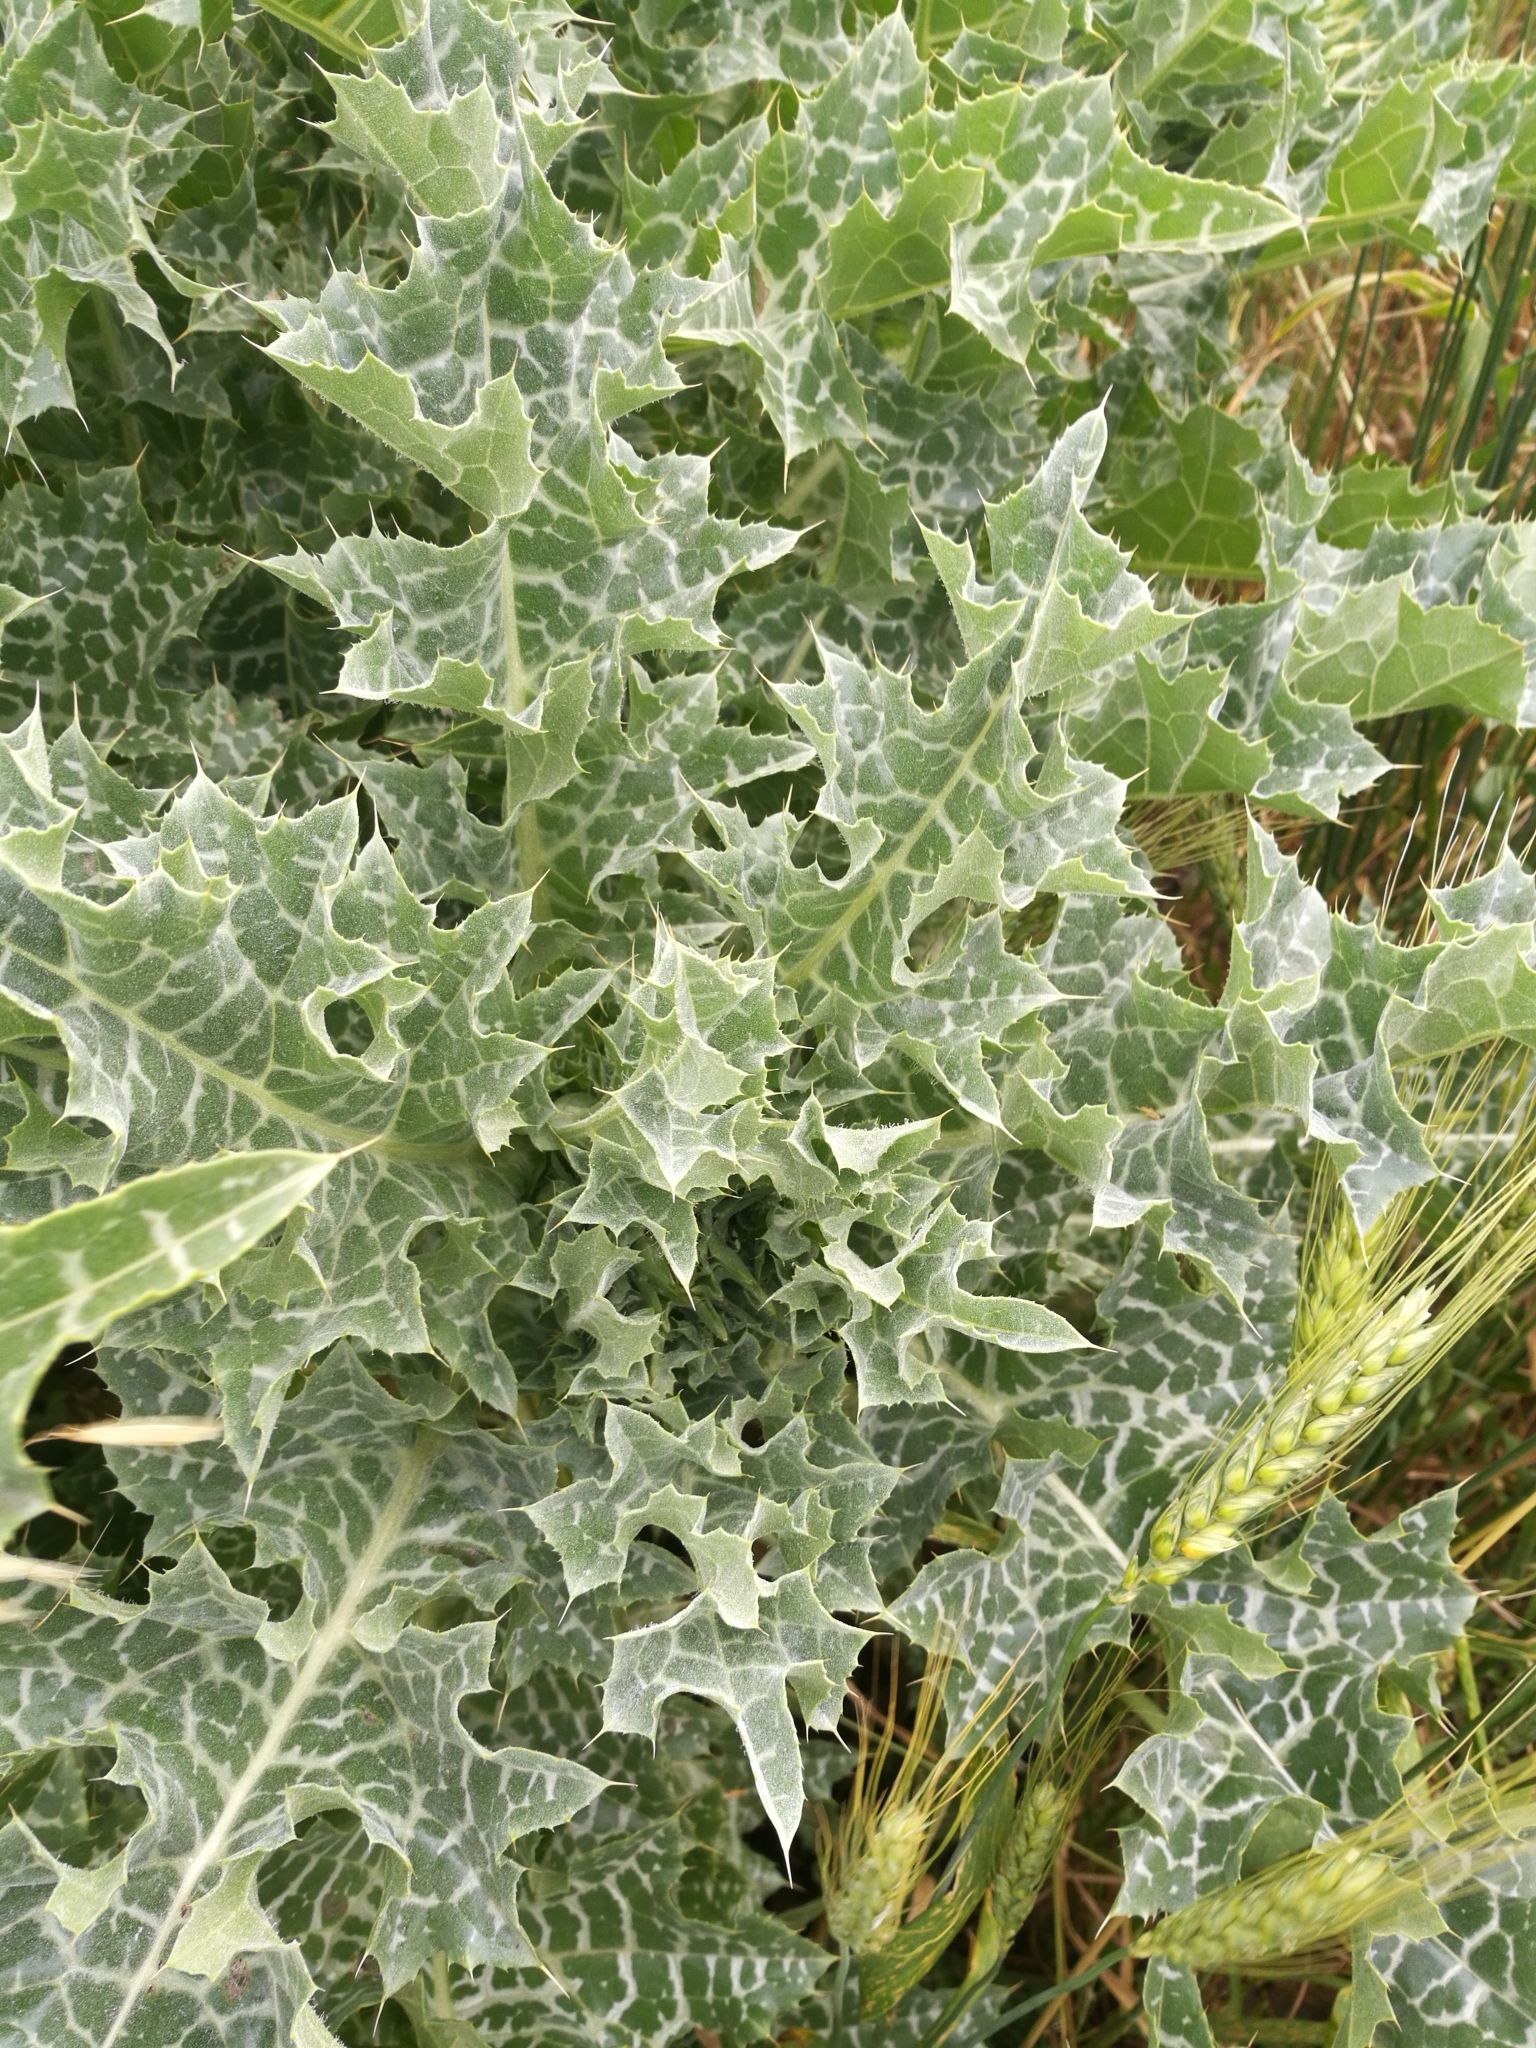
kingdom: Plantae
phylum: Tracheophyta
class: Magnoliopsida
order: Asterales
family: Asteraceae
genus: Silybum
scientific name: Silybum marianum
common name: Milk thistle
